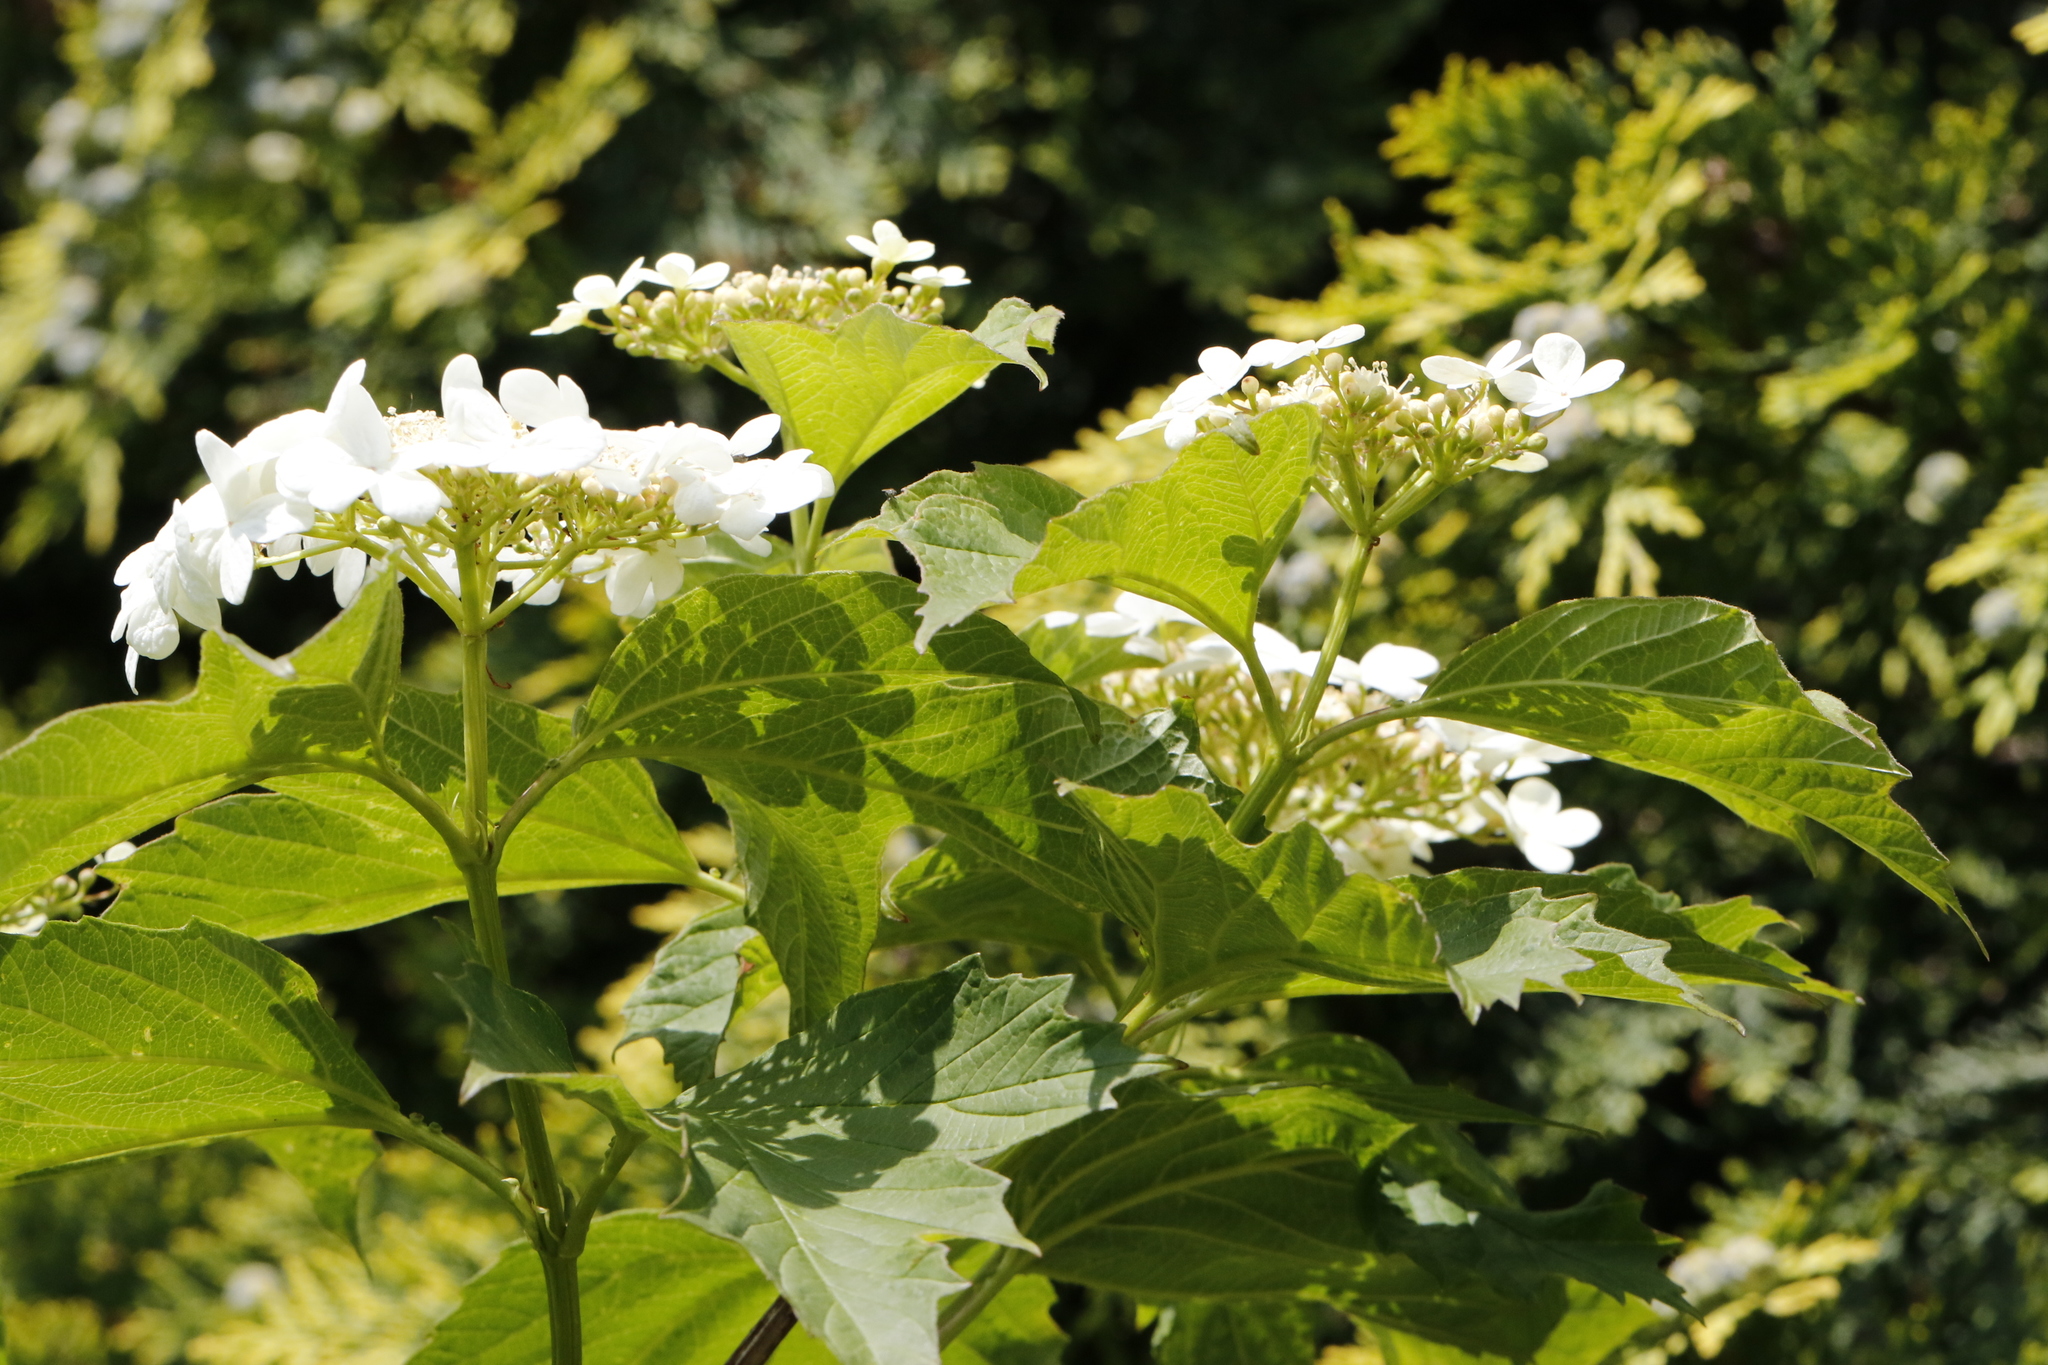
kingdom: Plantae
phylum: Tracheophyta
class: Magnoliopsida
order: Dipsacales
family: Viburnaceae
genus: Viburnum
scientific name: Viburnum opulus
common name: Guelder-rose
